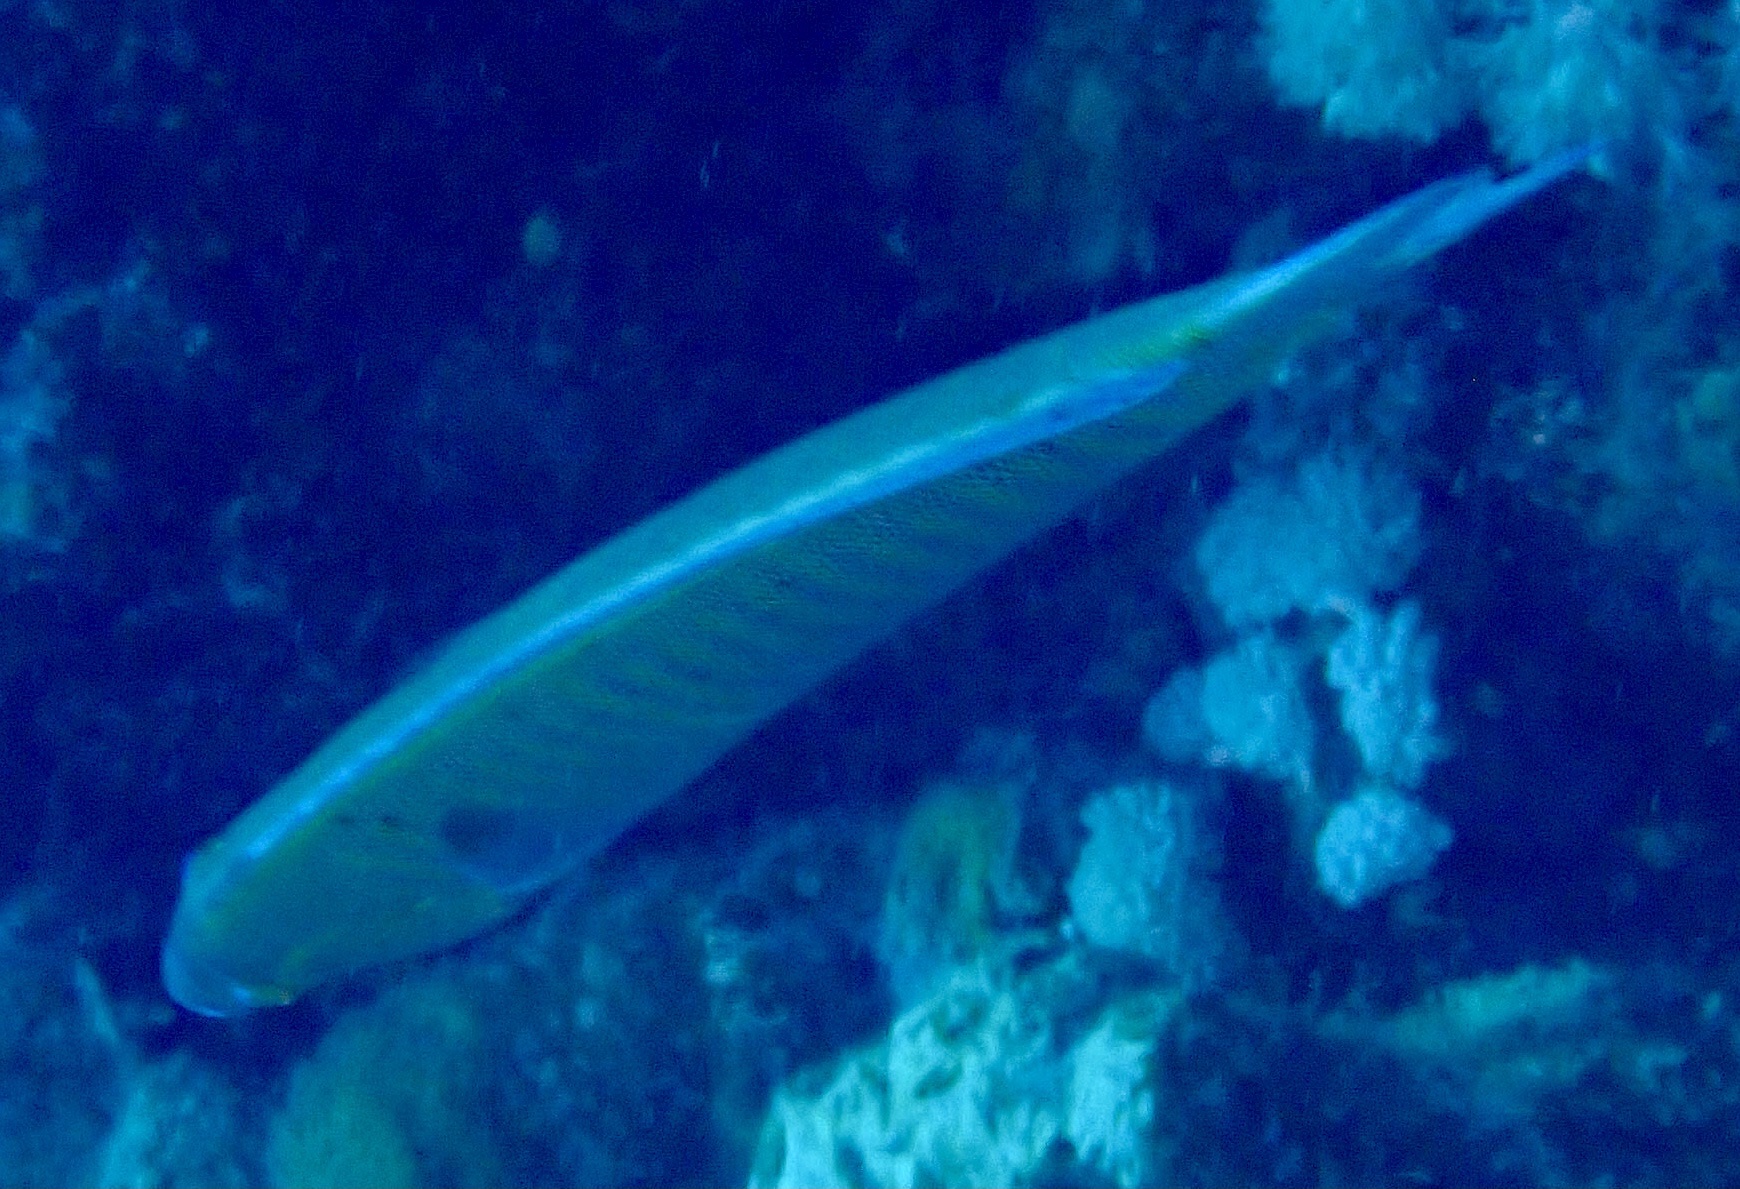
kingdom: Animalia
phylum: Chordata
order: Perciformes
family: Labridae
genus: Hologymnosus
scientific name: Hologymnosus annulatus
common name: Ring wrasse
